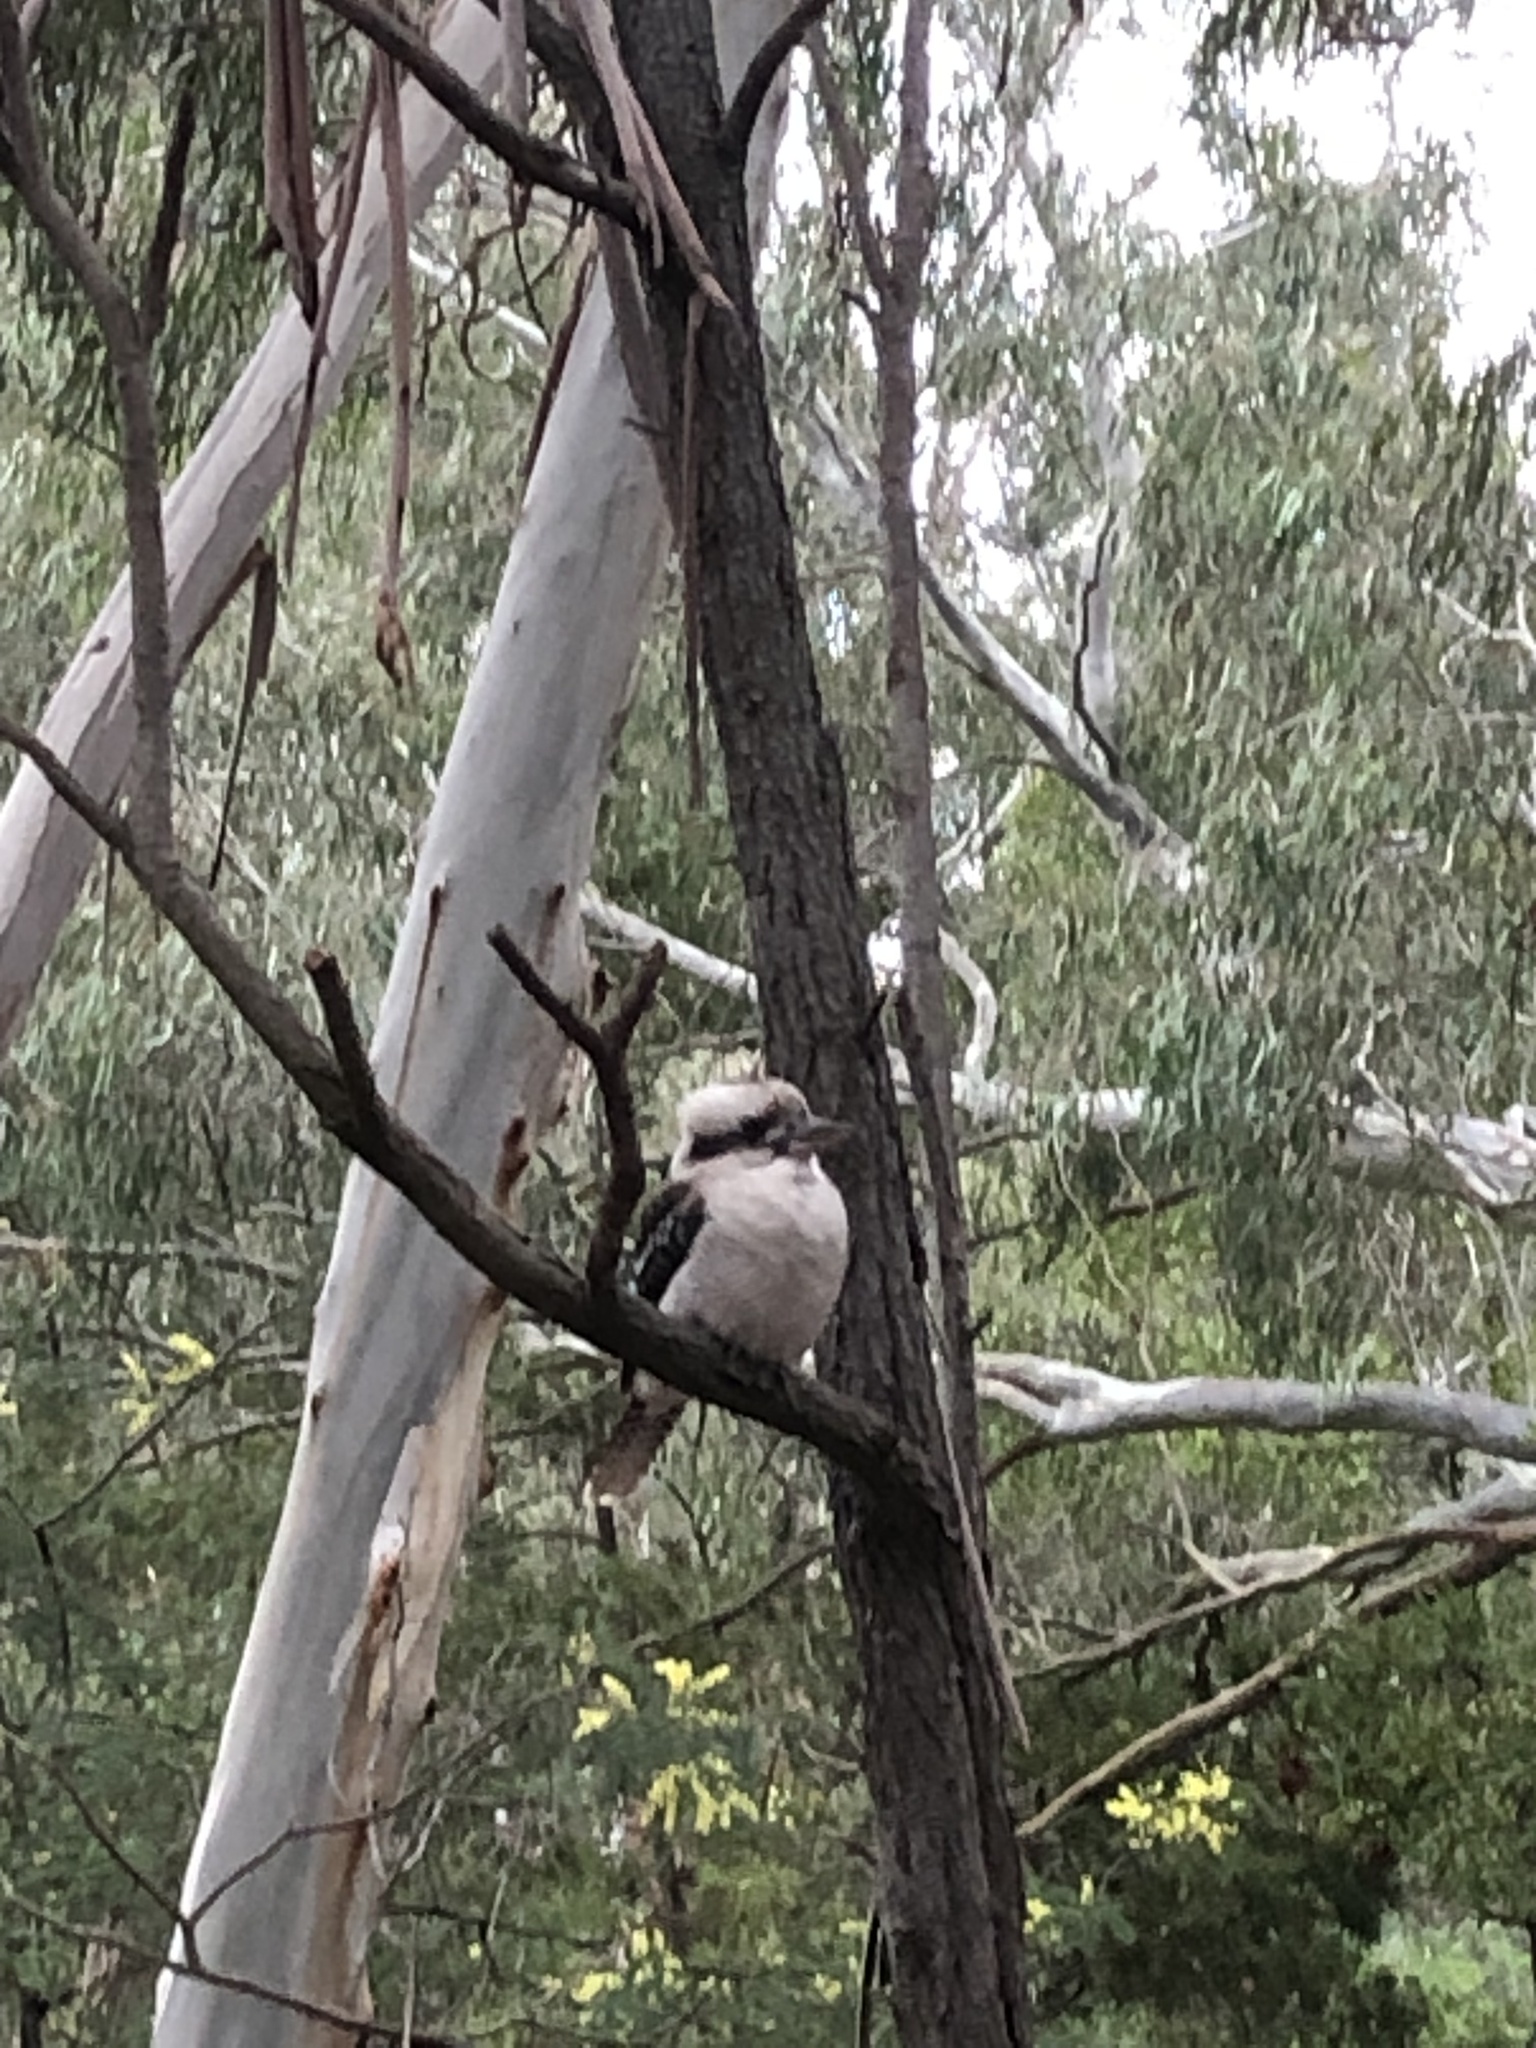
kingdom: Animalia
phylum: Chordata
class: Aves
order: Coraciiformes
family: Alcedinidae
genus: Dacelo
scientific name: Dacelo novaeguineae
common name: Laughing kookaburra
